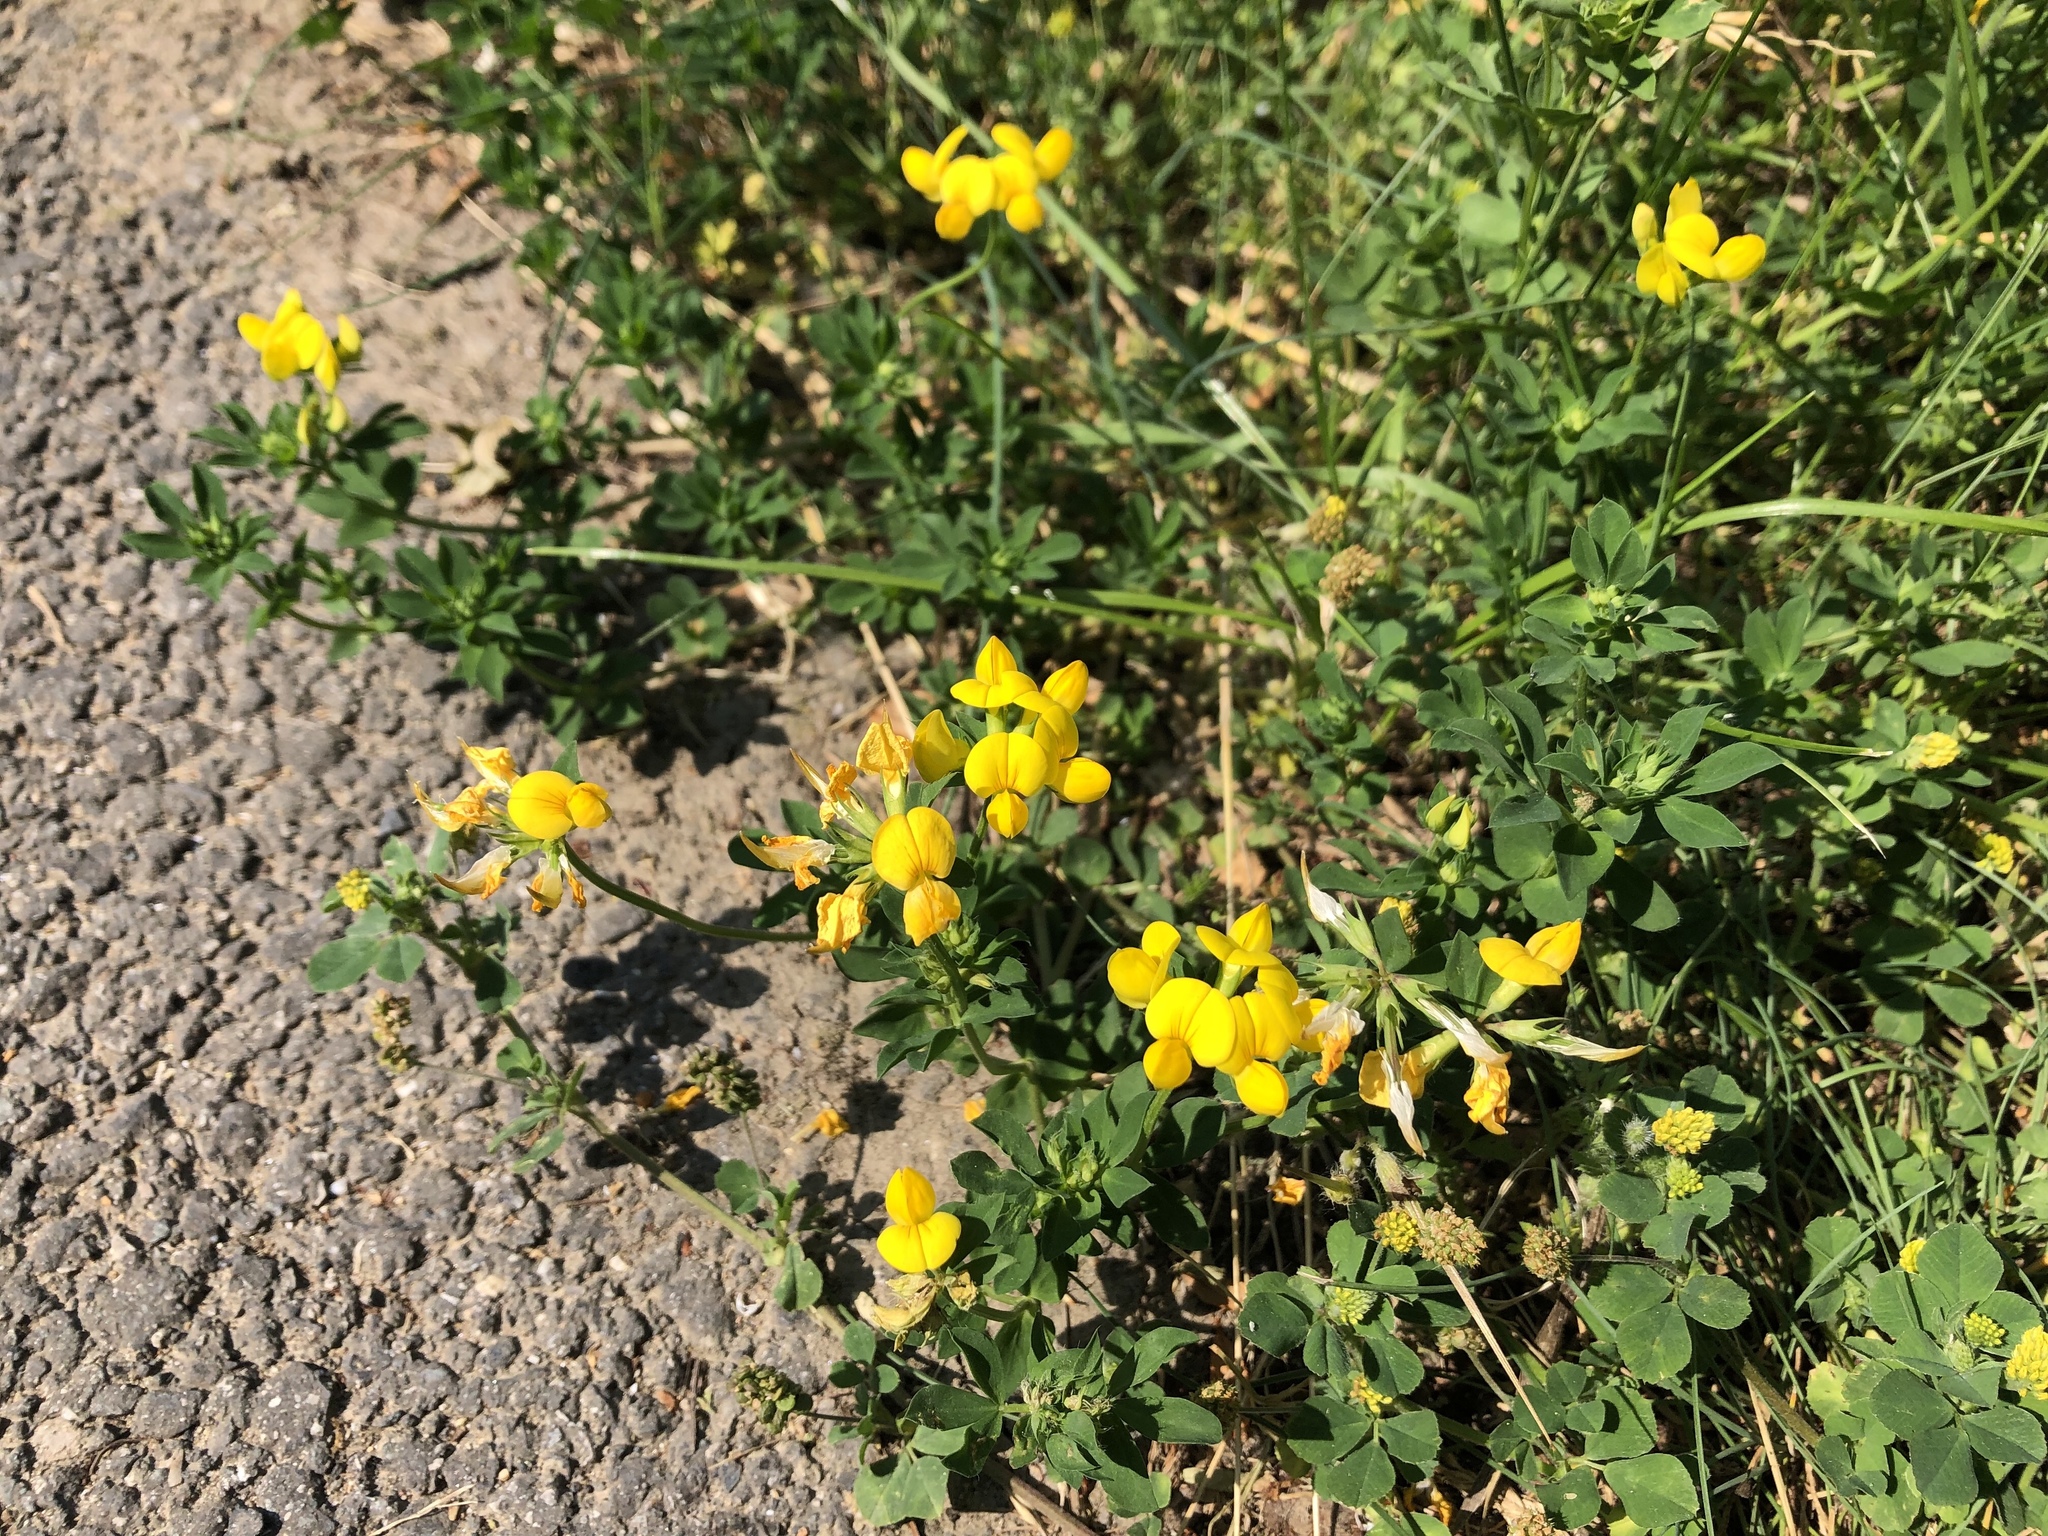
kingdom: Plantae
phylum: Tracheophyta
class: Magnoliopsida
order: Fabales
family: Fabaceae
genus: Lotus
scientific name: Lotus corniculatus
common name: Common bird's-foot-trefoil
